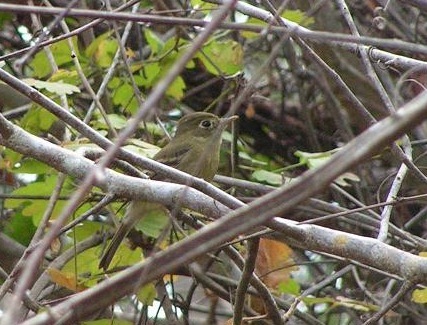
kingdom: Animalia
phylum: Chordata
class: Aves
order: Passeriformes
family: Tyrannidae
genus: Empidonax
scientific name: Empidonax
